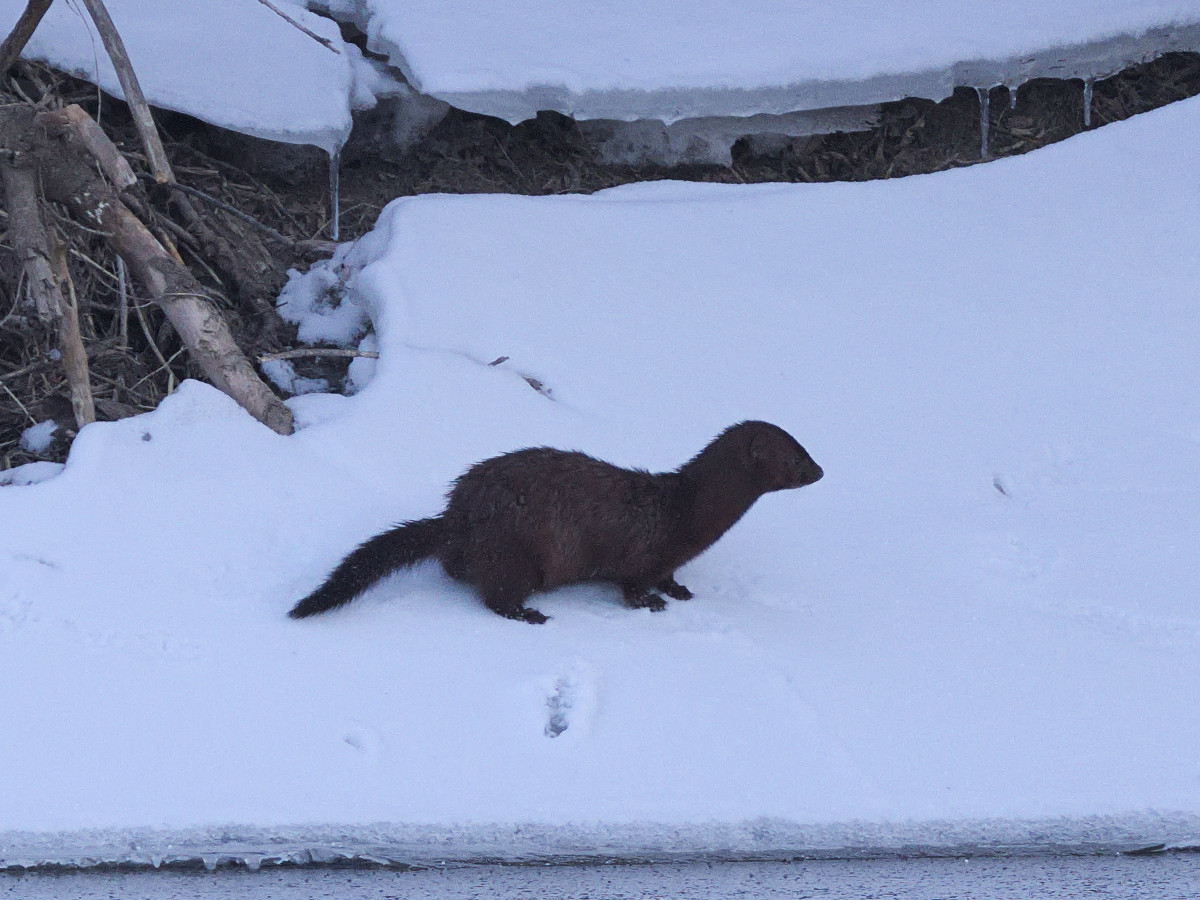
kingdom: Animalia
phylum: Chordata
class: Mammalia
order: Carnivora
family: Mustelidae
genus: Mustela
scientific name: Mustela
